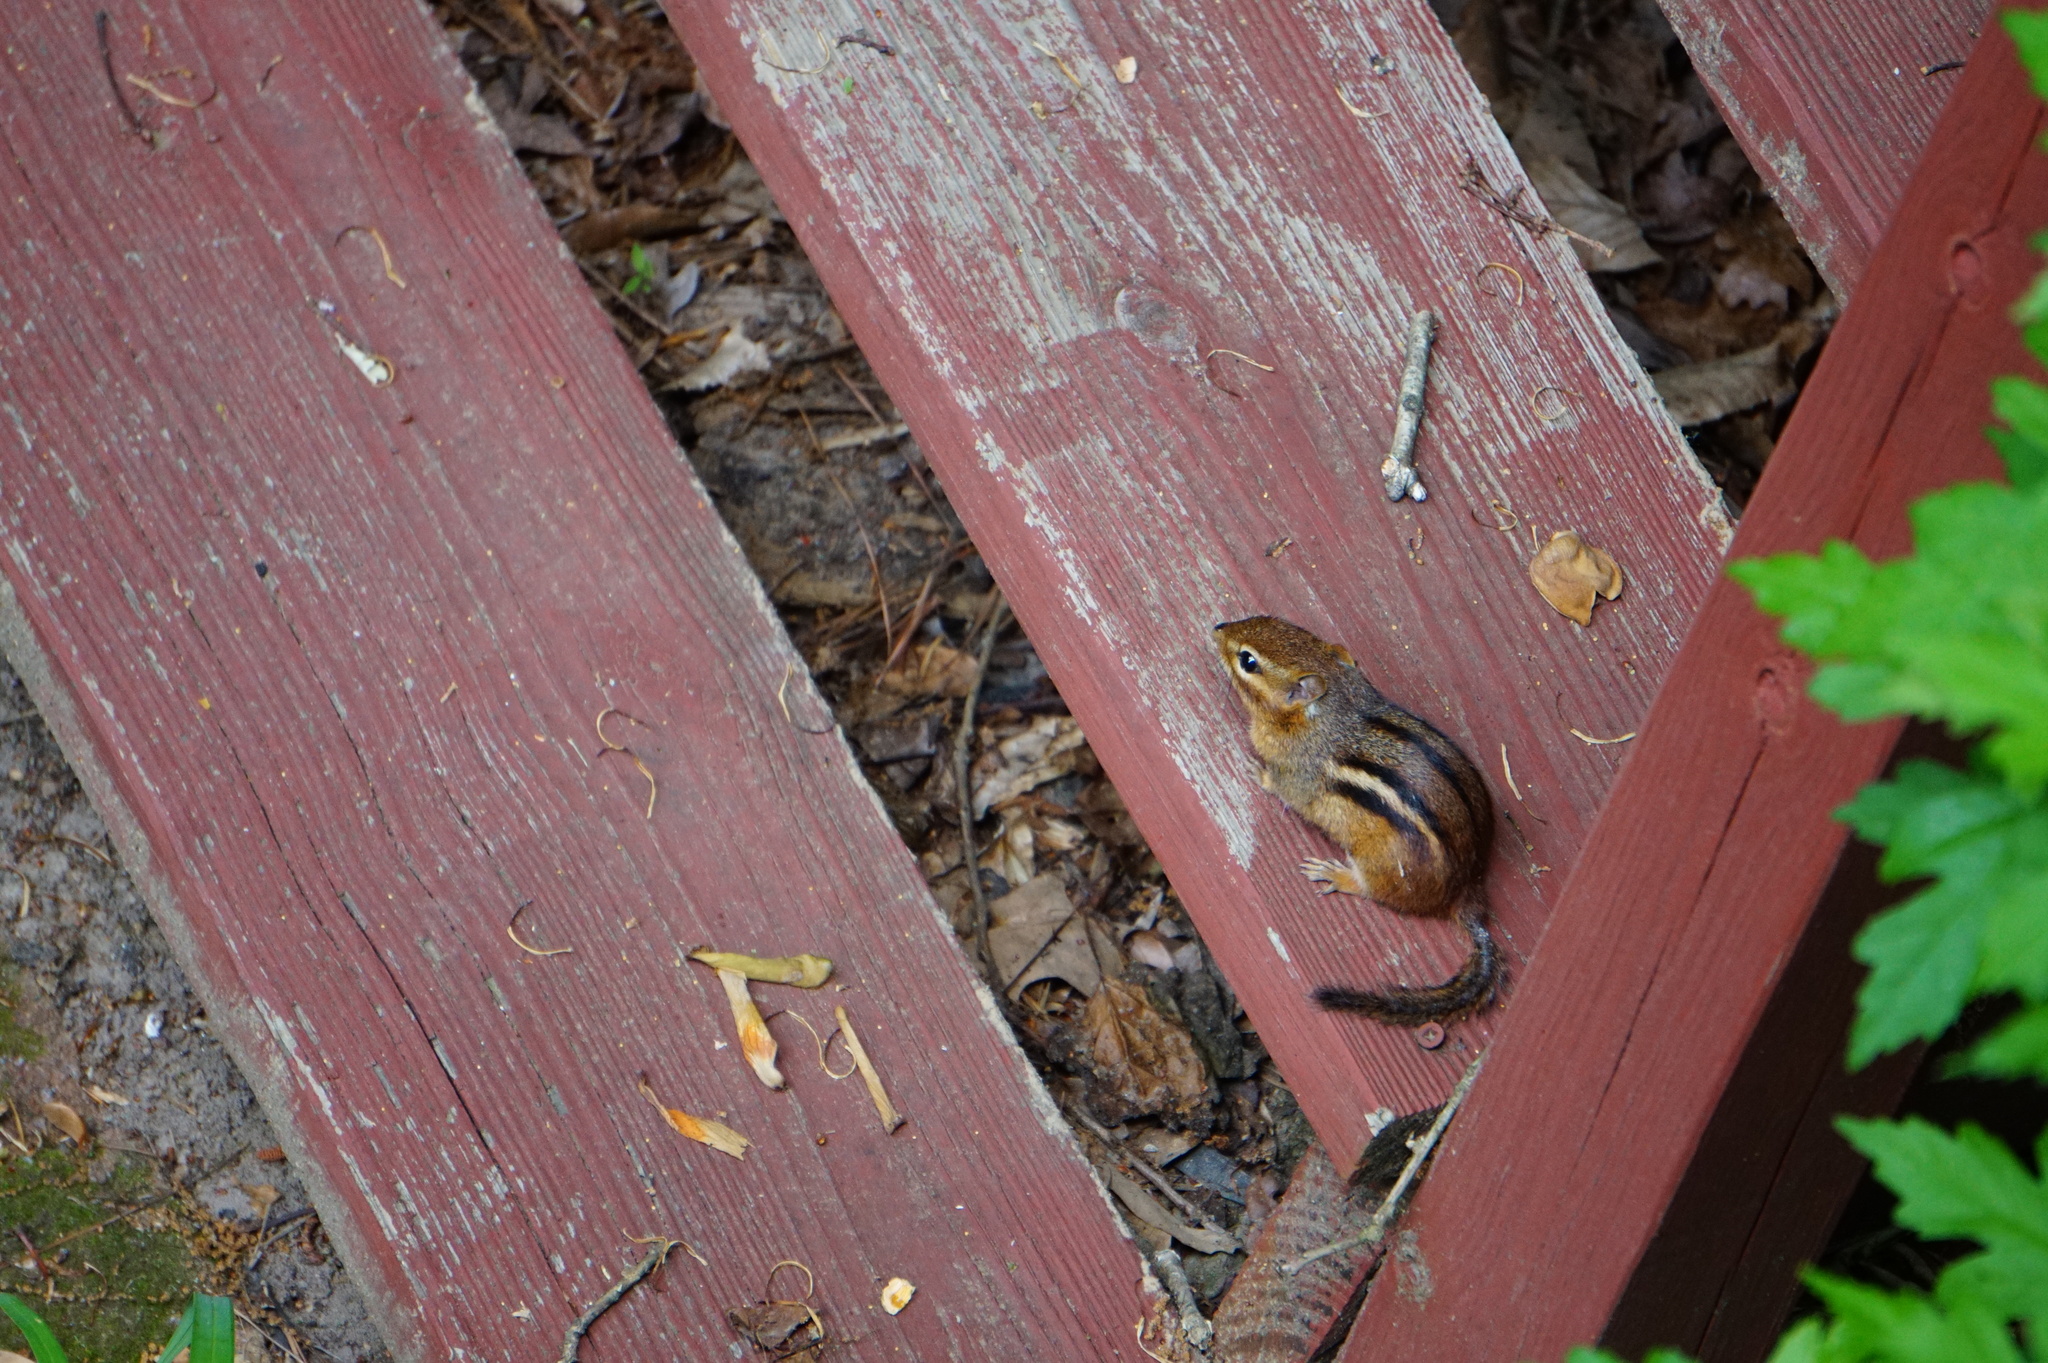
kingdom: Animalia
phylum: Chordata
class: Mammalia
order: Rodentia
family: Sciuridae
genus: Tamias
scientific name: Tamias striatus
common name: Eastern chipmunk
